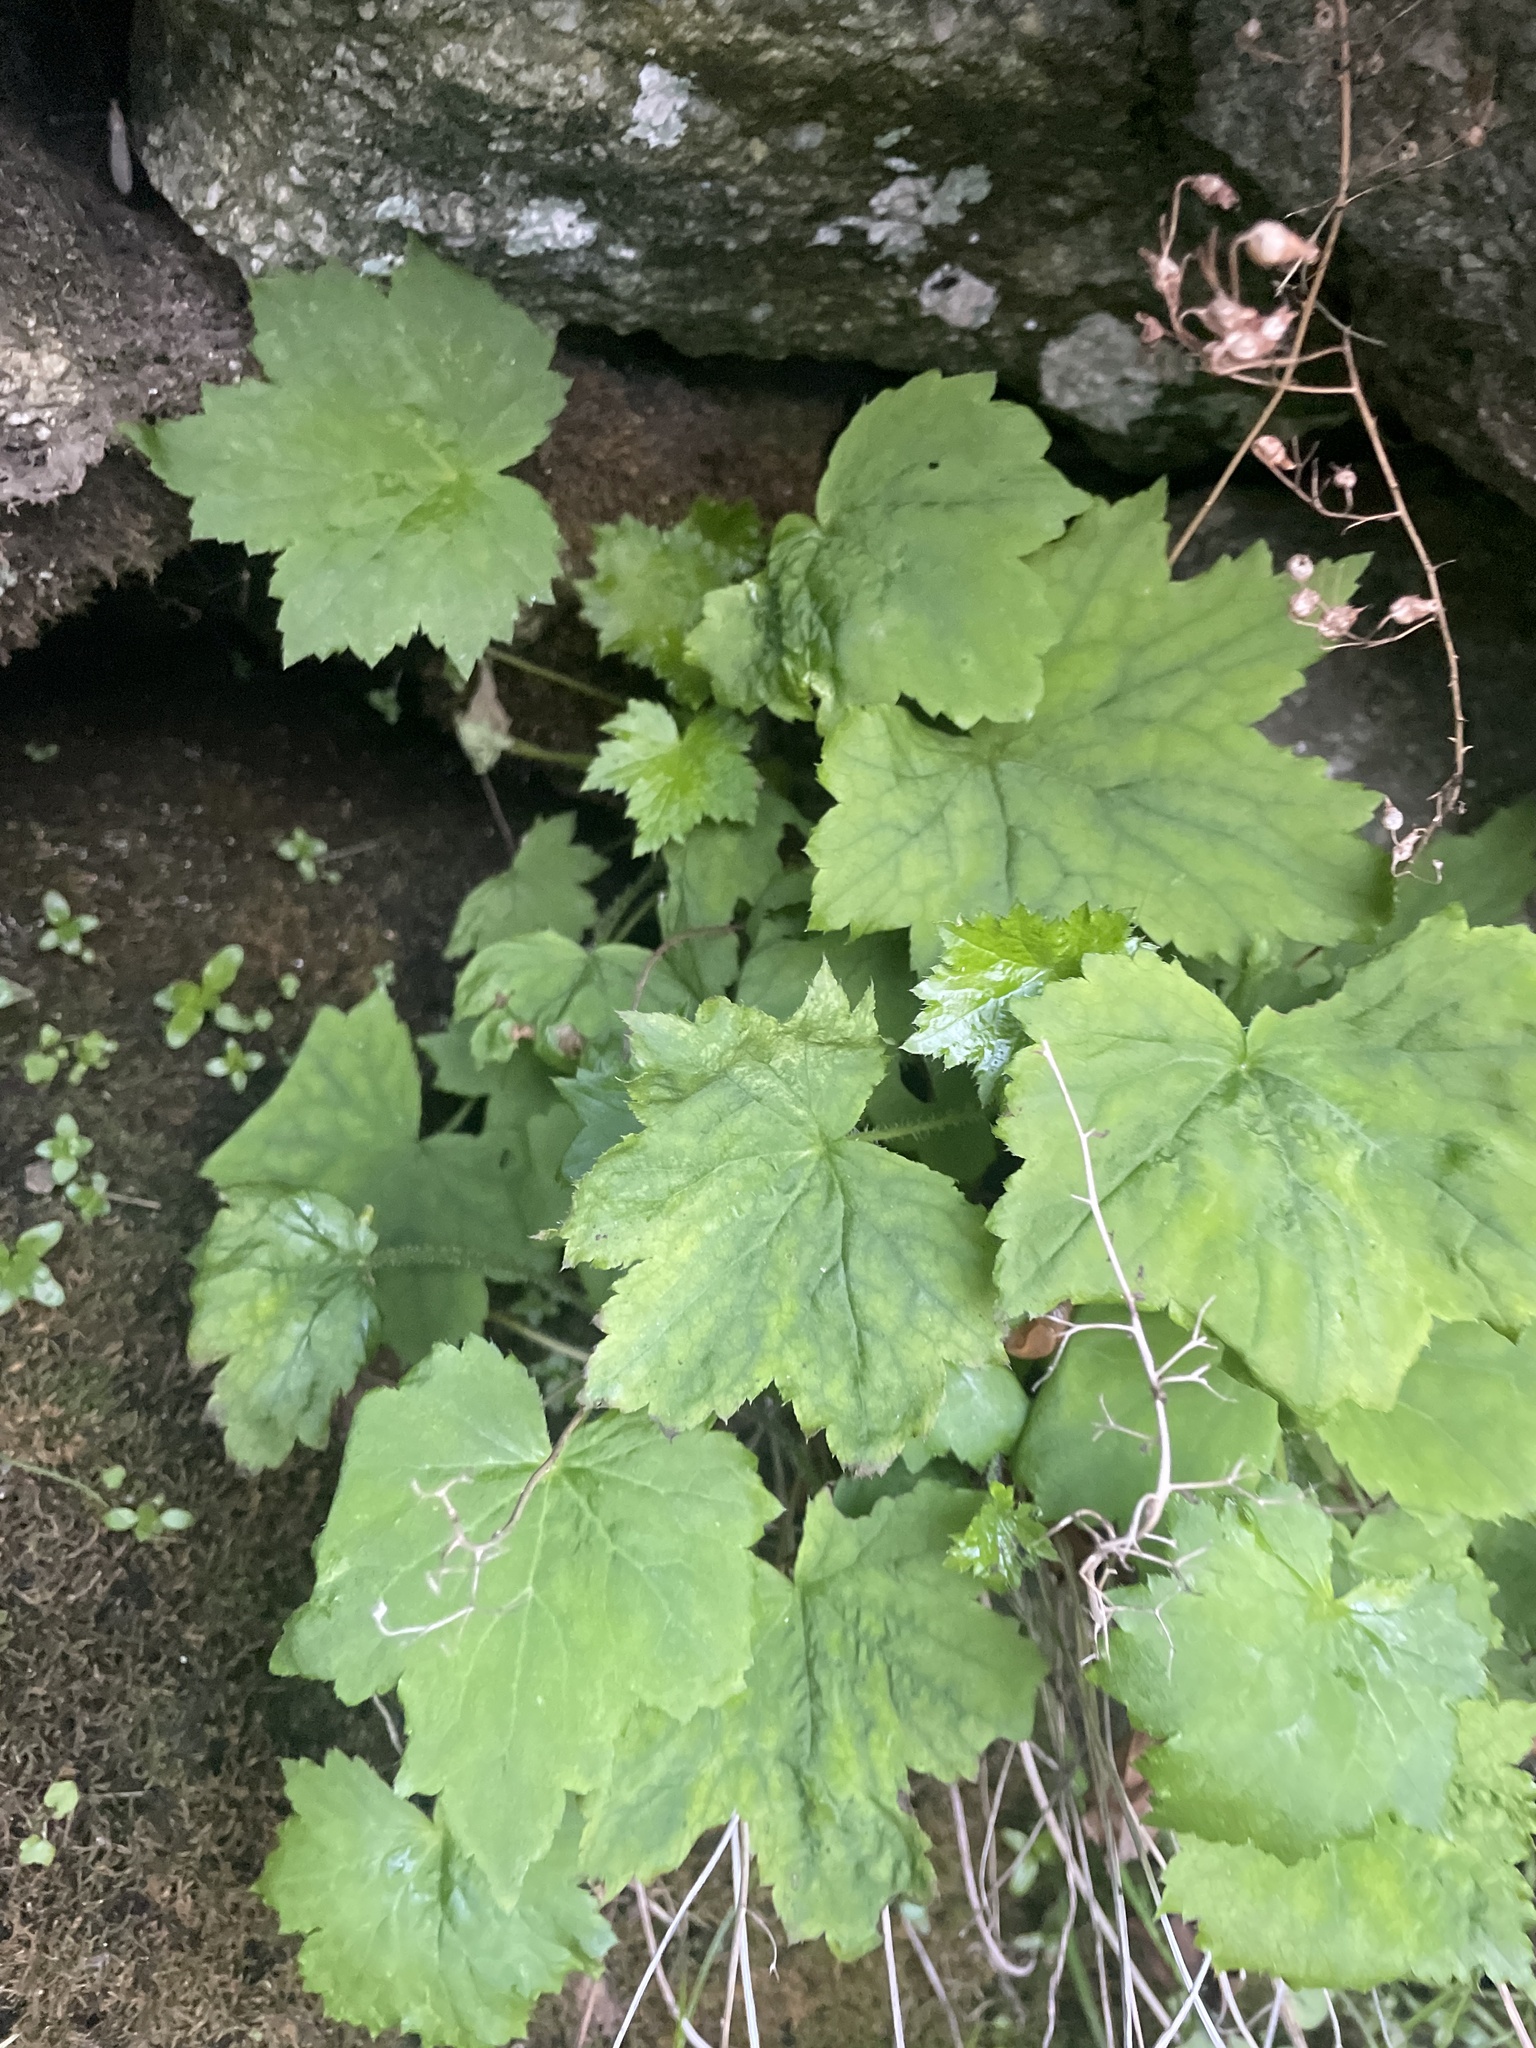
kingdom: Plantae
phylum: Tracheophyta
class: Magnoliopsida
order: Saxifragales
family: Saxifragaceae
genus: Heuchera
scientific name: Heuchera villosa
